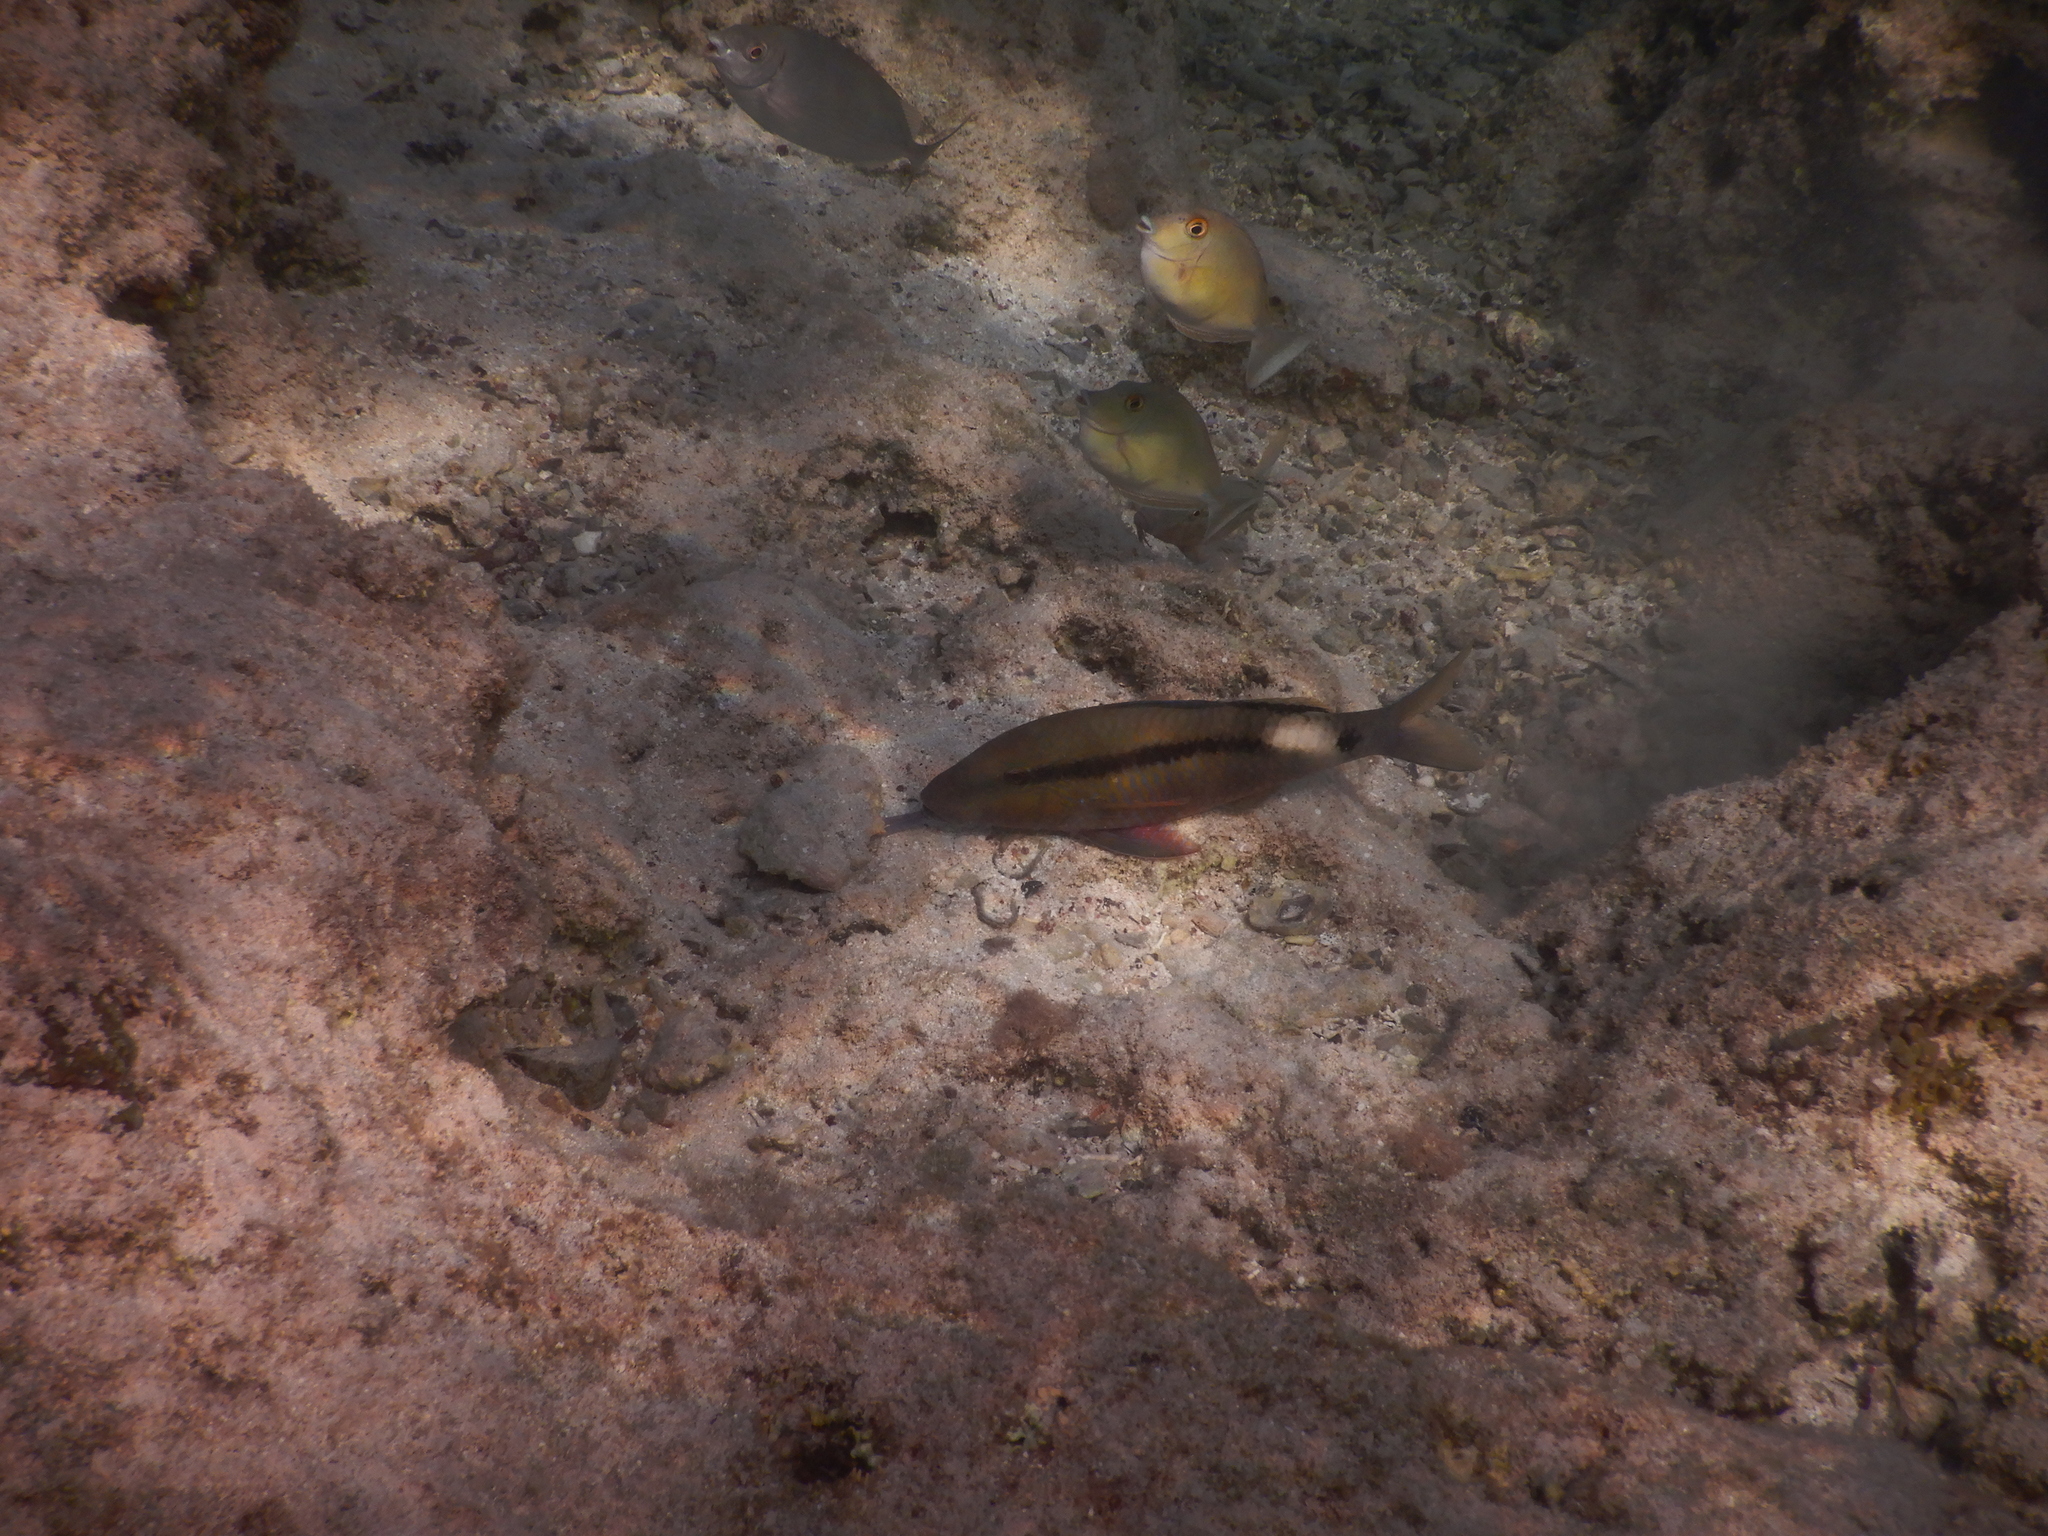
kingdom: Animalia
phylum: Chordata
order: Perciformes
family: Mullidae
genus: Parupeneus
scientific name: Parupeneus macronemus
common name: Long-barbel goatfish
